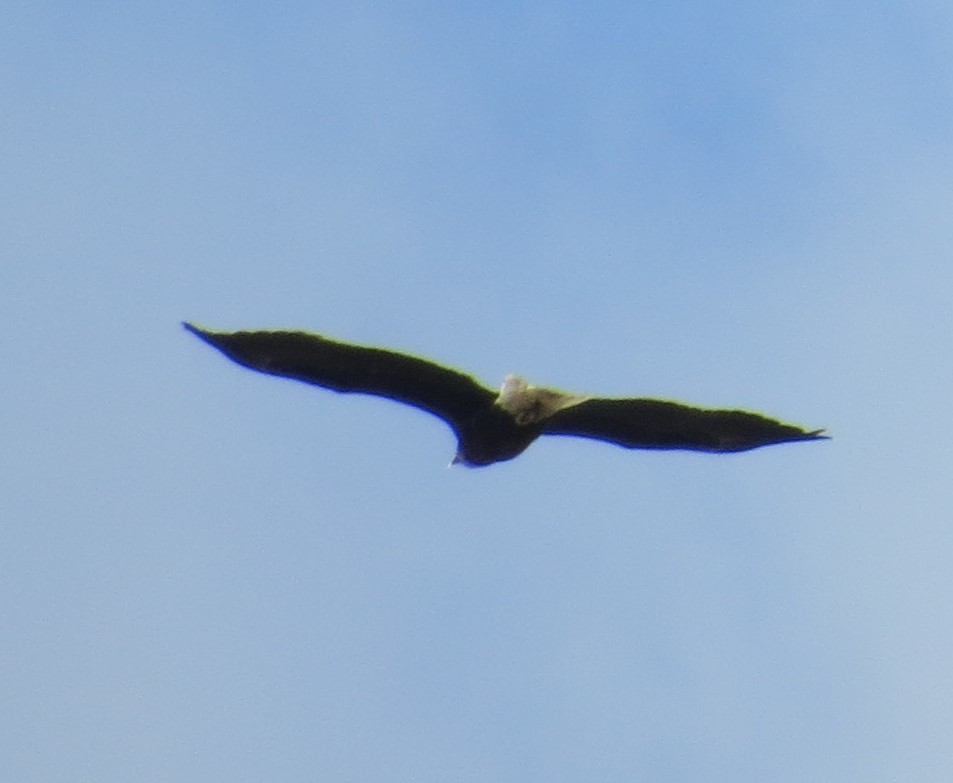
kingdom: Animalia
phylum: Chordata
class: Aves
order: Accipitriformes
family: Accipitridae
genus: Haliaeetus
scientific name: Haliaeetus leucocephalus
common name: Bald eagle
